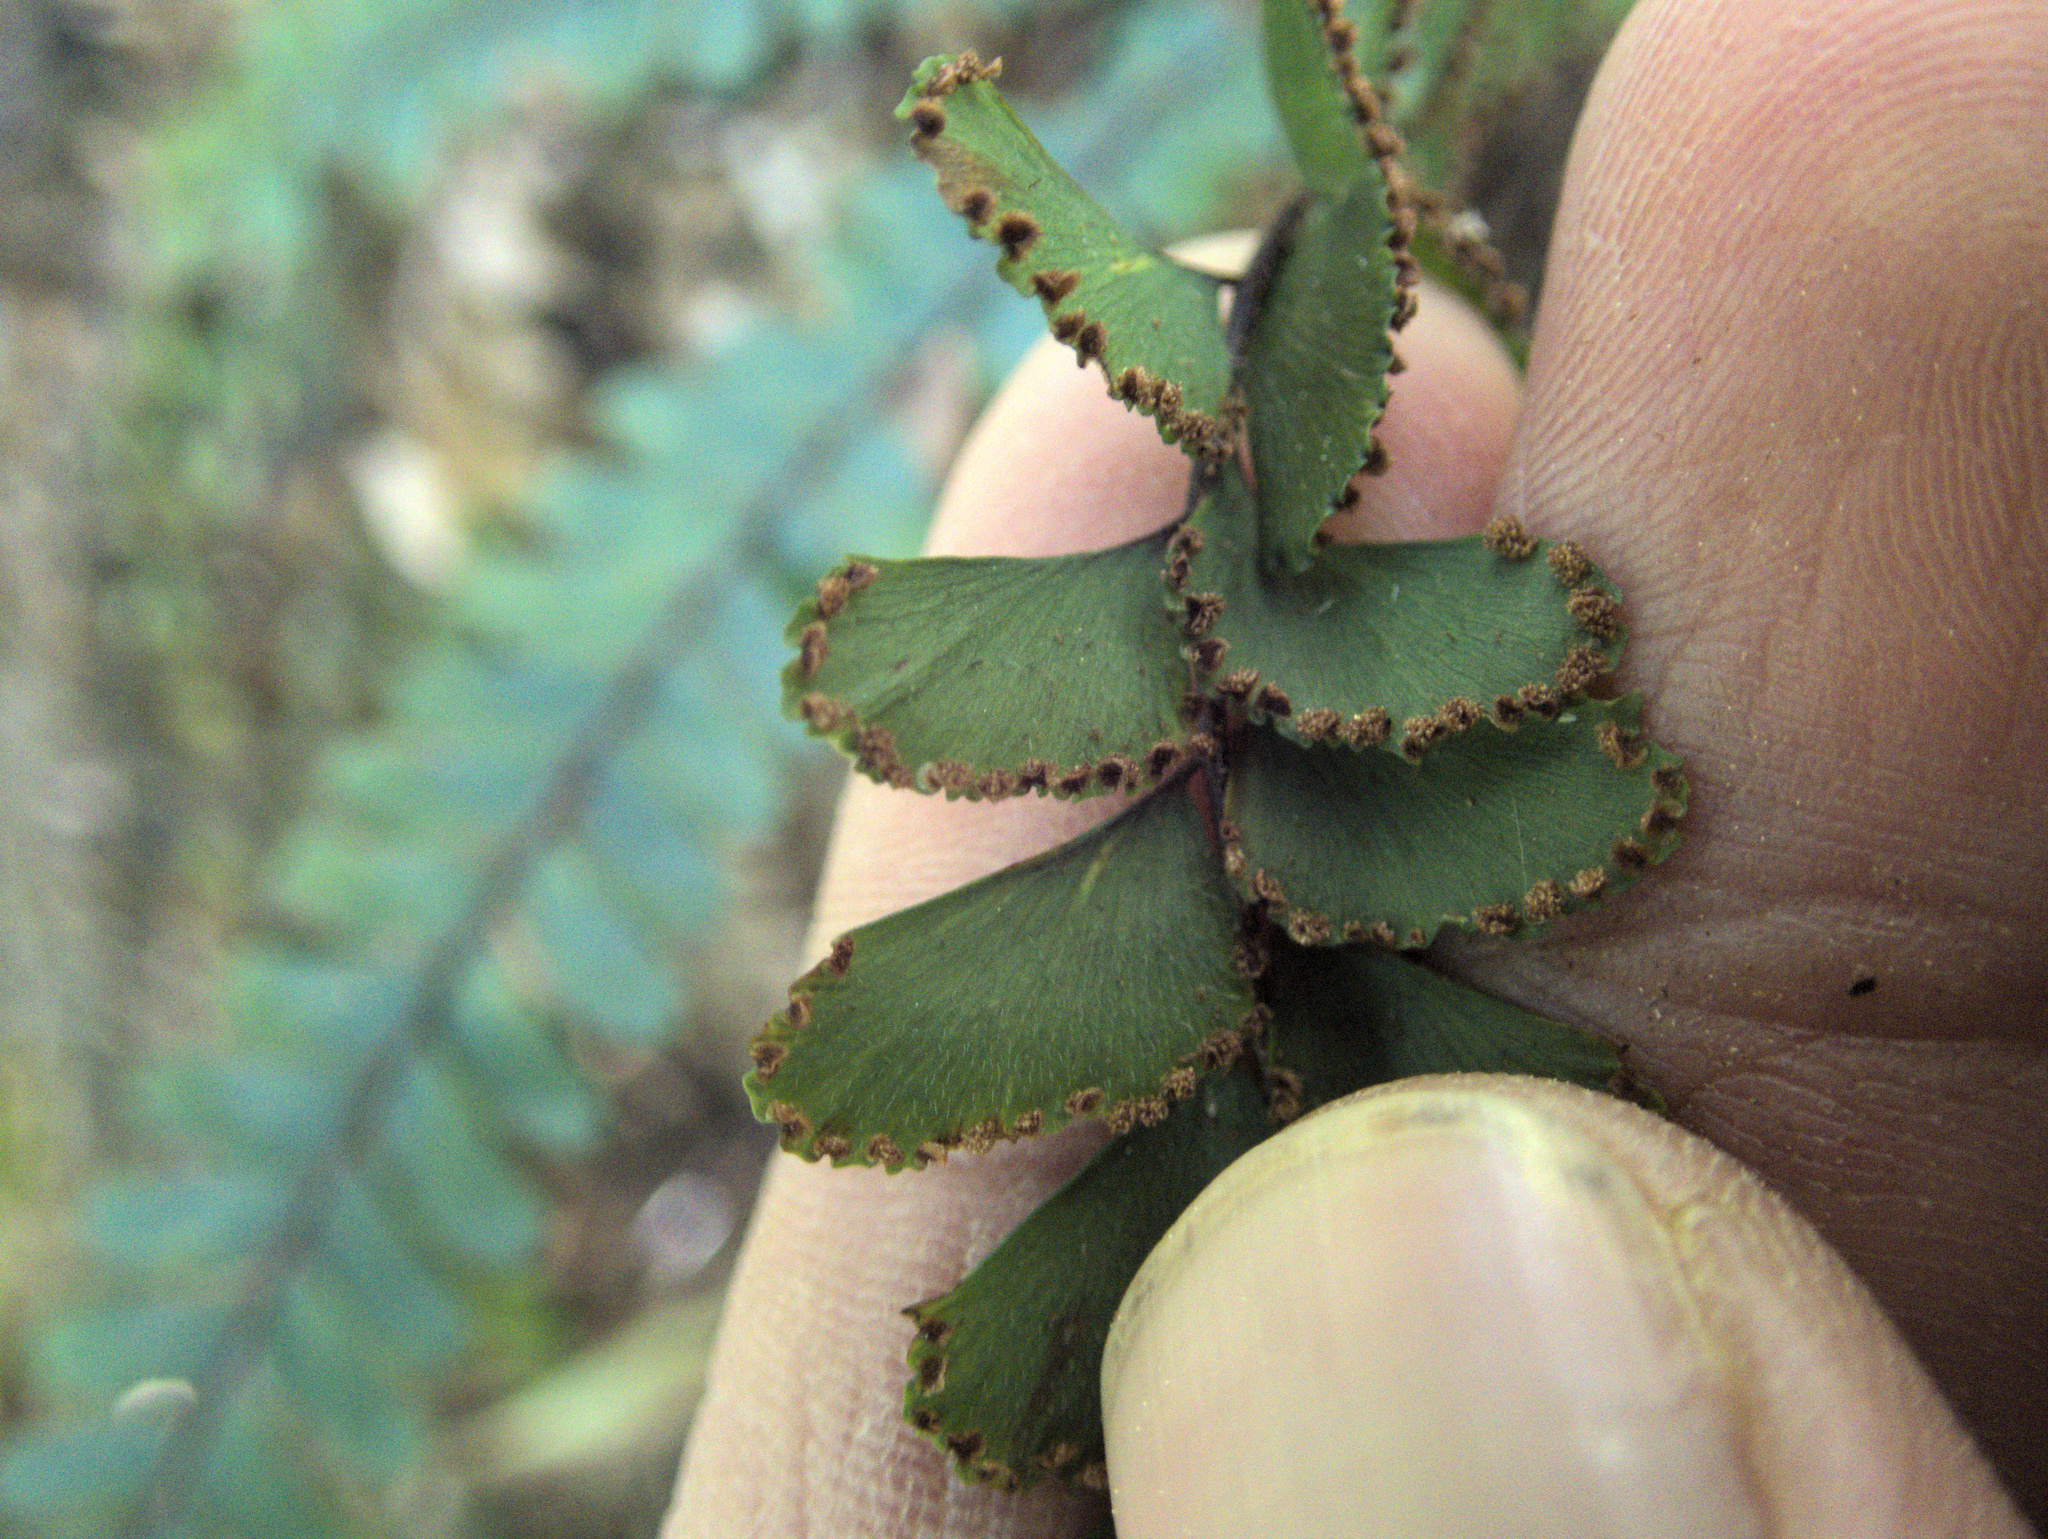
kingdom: Plantae
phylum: Tracheophyta
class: Polypodiopsida
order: Polypodiales
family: Pteridaceae
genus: Adiantum
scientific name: Adiantum hispidulum
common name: Rough maidenhair
